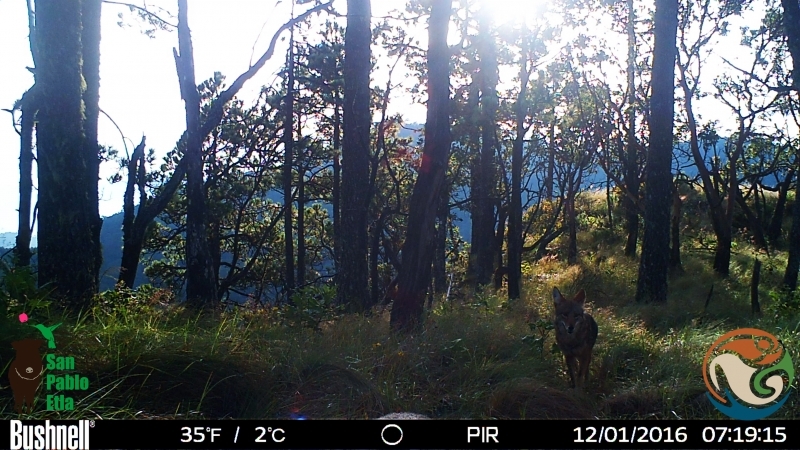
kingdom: Animalia
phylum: Chordata
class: Mammalia
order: Carnivora
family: Canidae
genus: Canis
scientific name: Canis latrans
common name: Coyote
